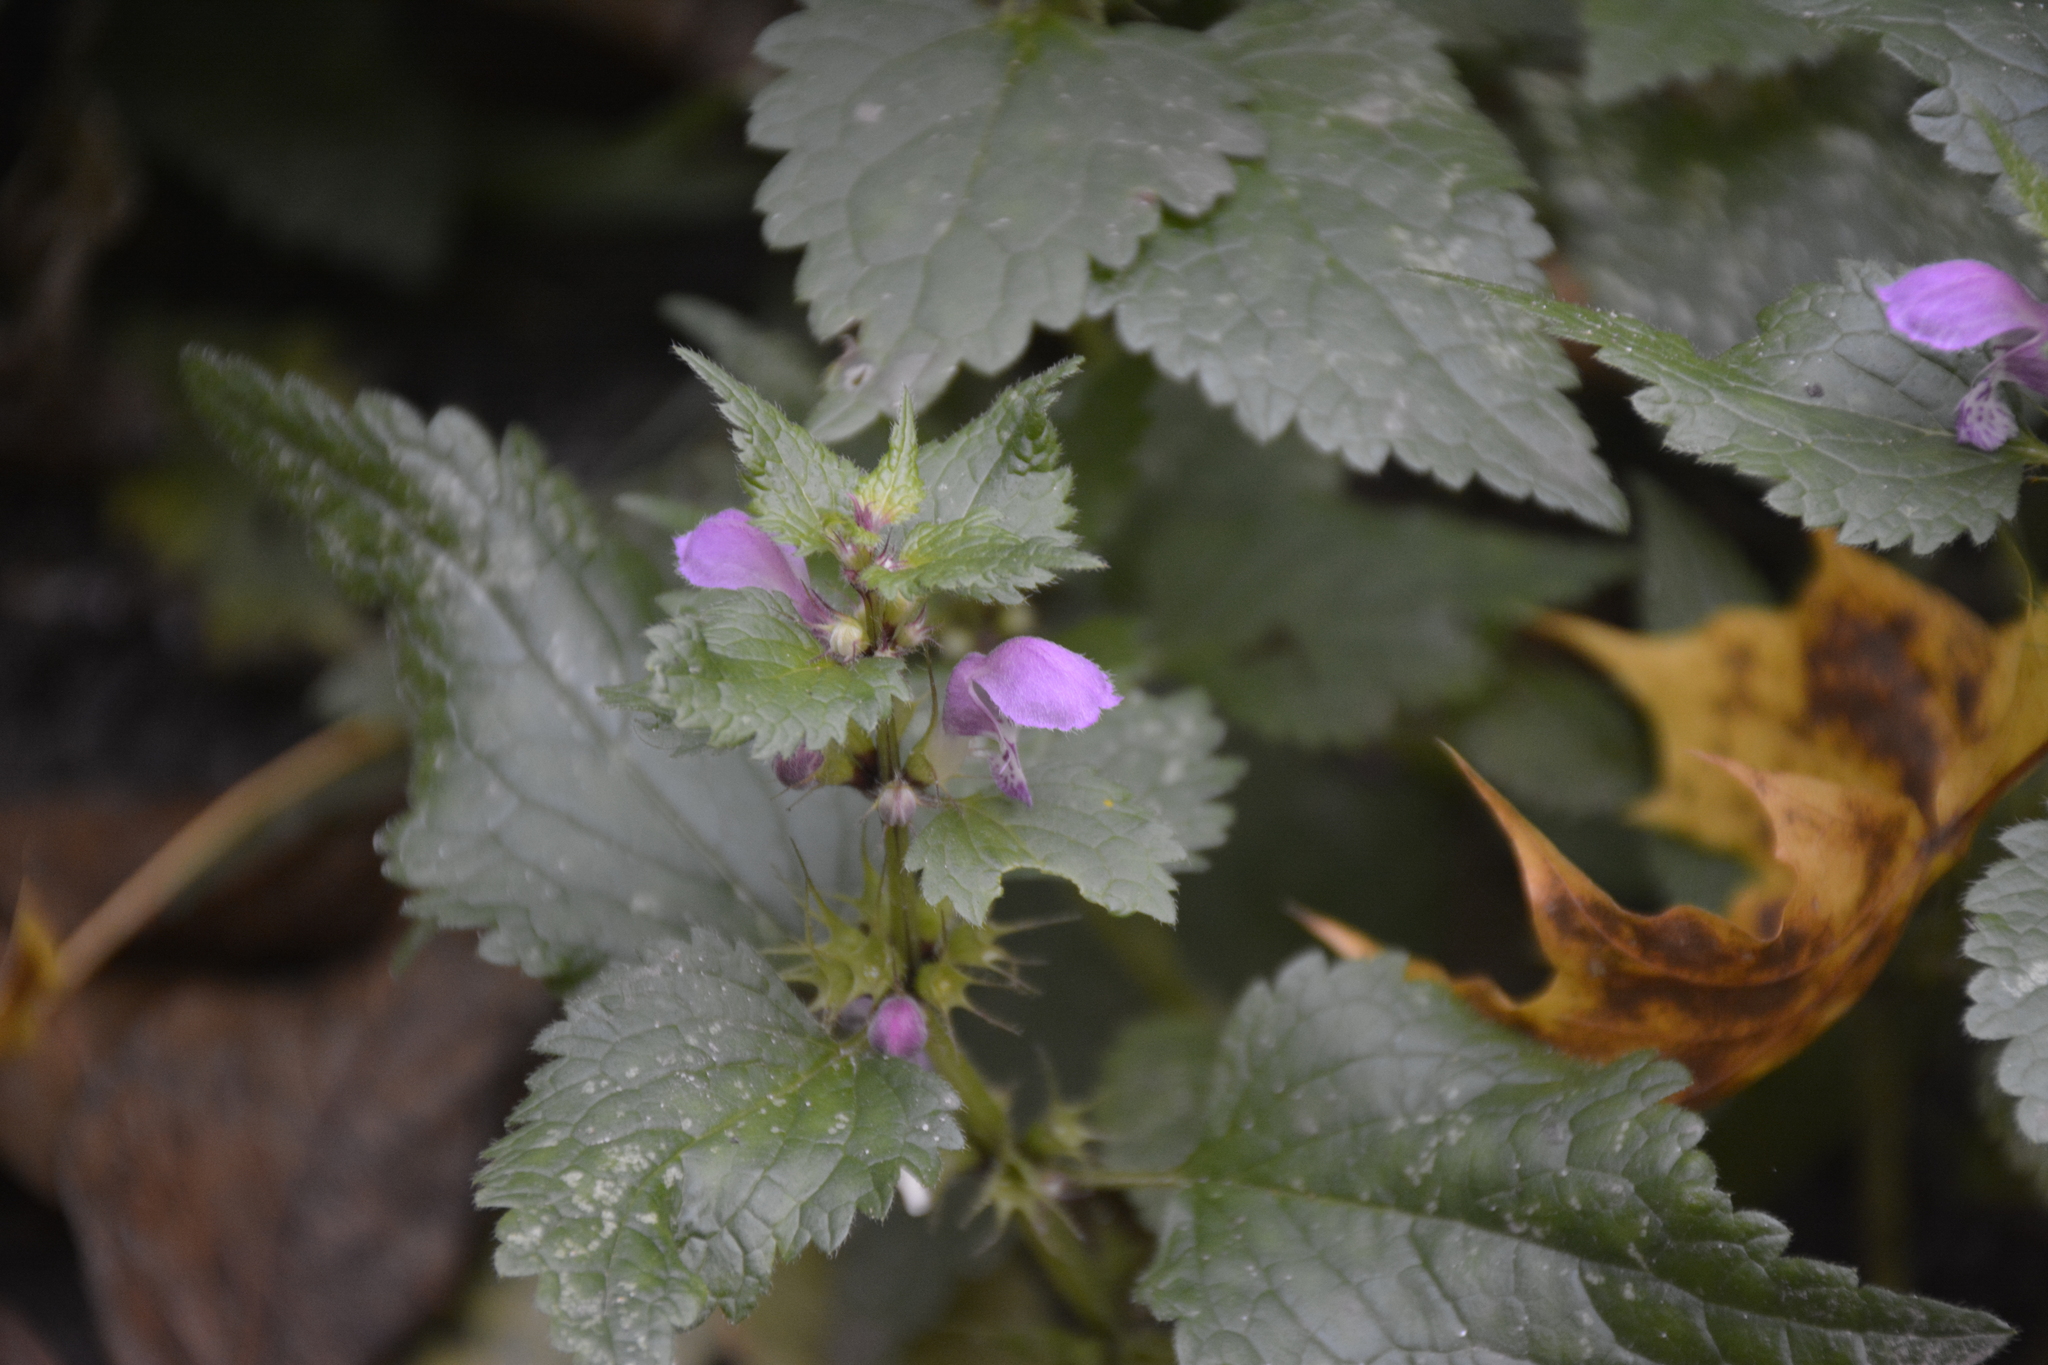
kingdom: Plantae
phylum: Tracheophyta
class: Magnoliopsida
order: Lamiales
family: Lamiaceae
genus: Lamium
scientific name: Lamium maculatum
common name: Spotted dead-nettle
